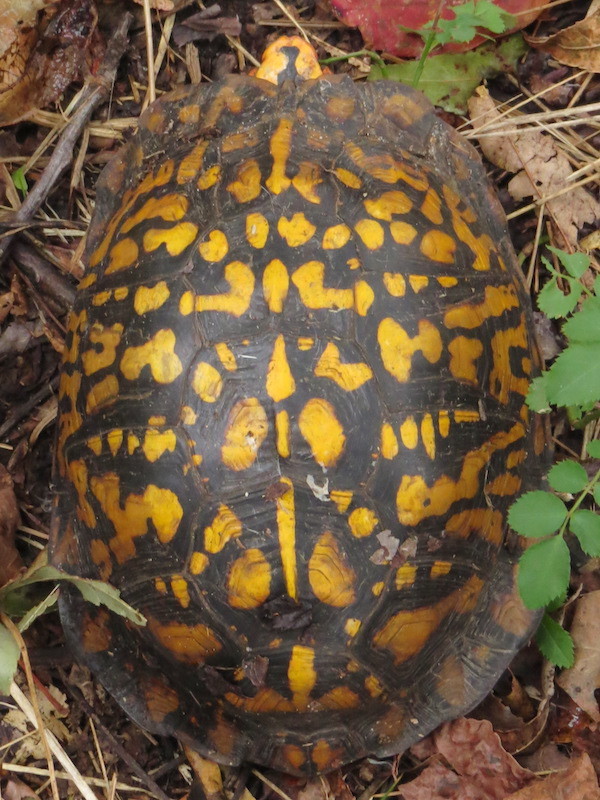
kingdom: Animalia
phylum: Chordata
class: Testudines
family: Emydidae
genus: Terrapene
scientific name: Terrapene carolina
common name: Common box turtle
